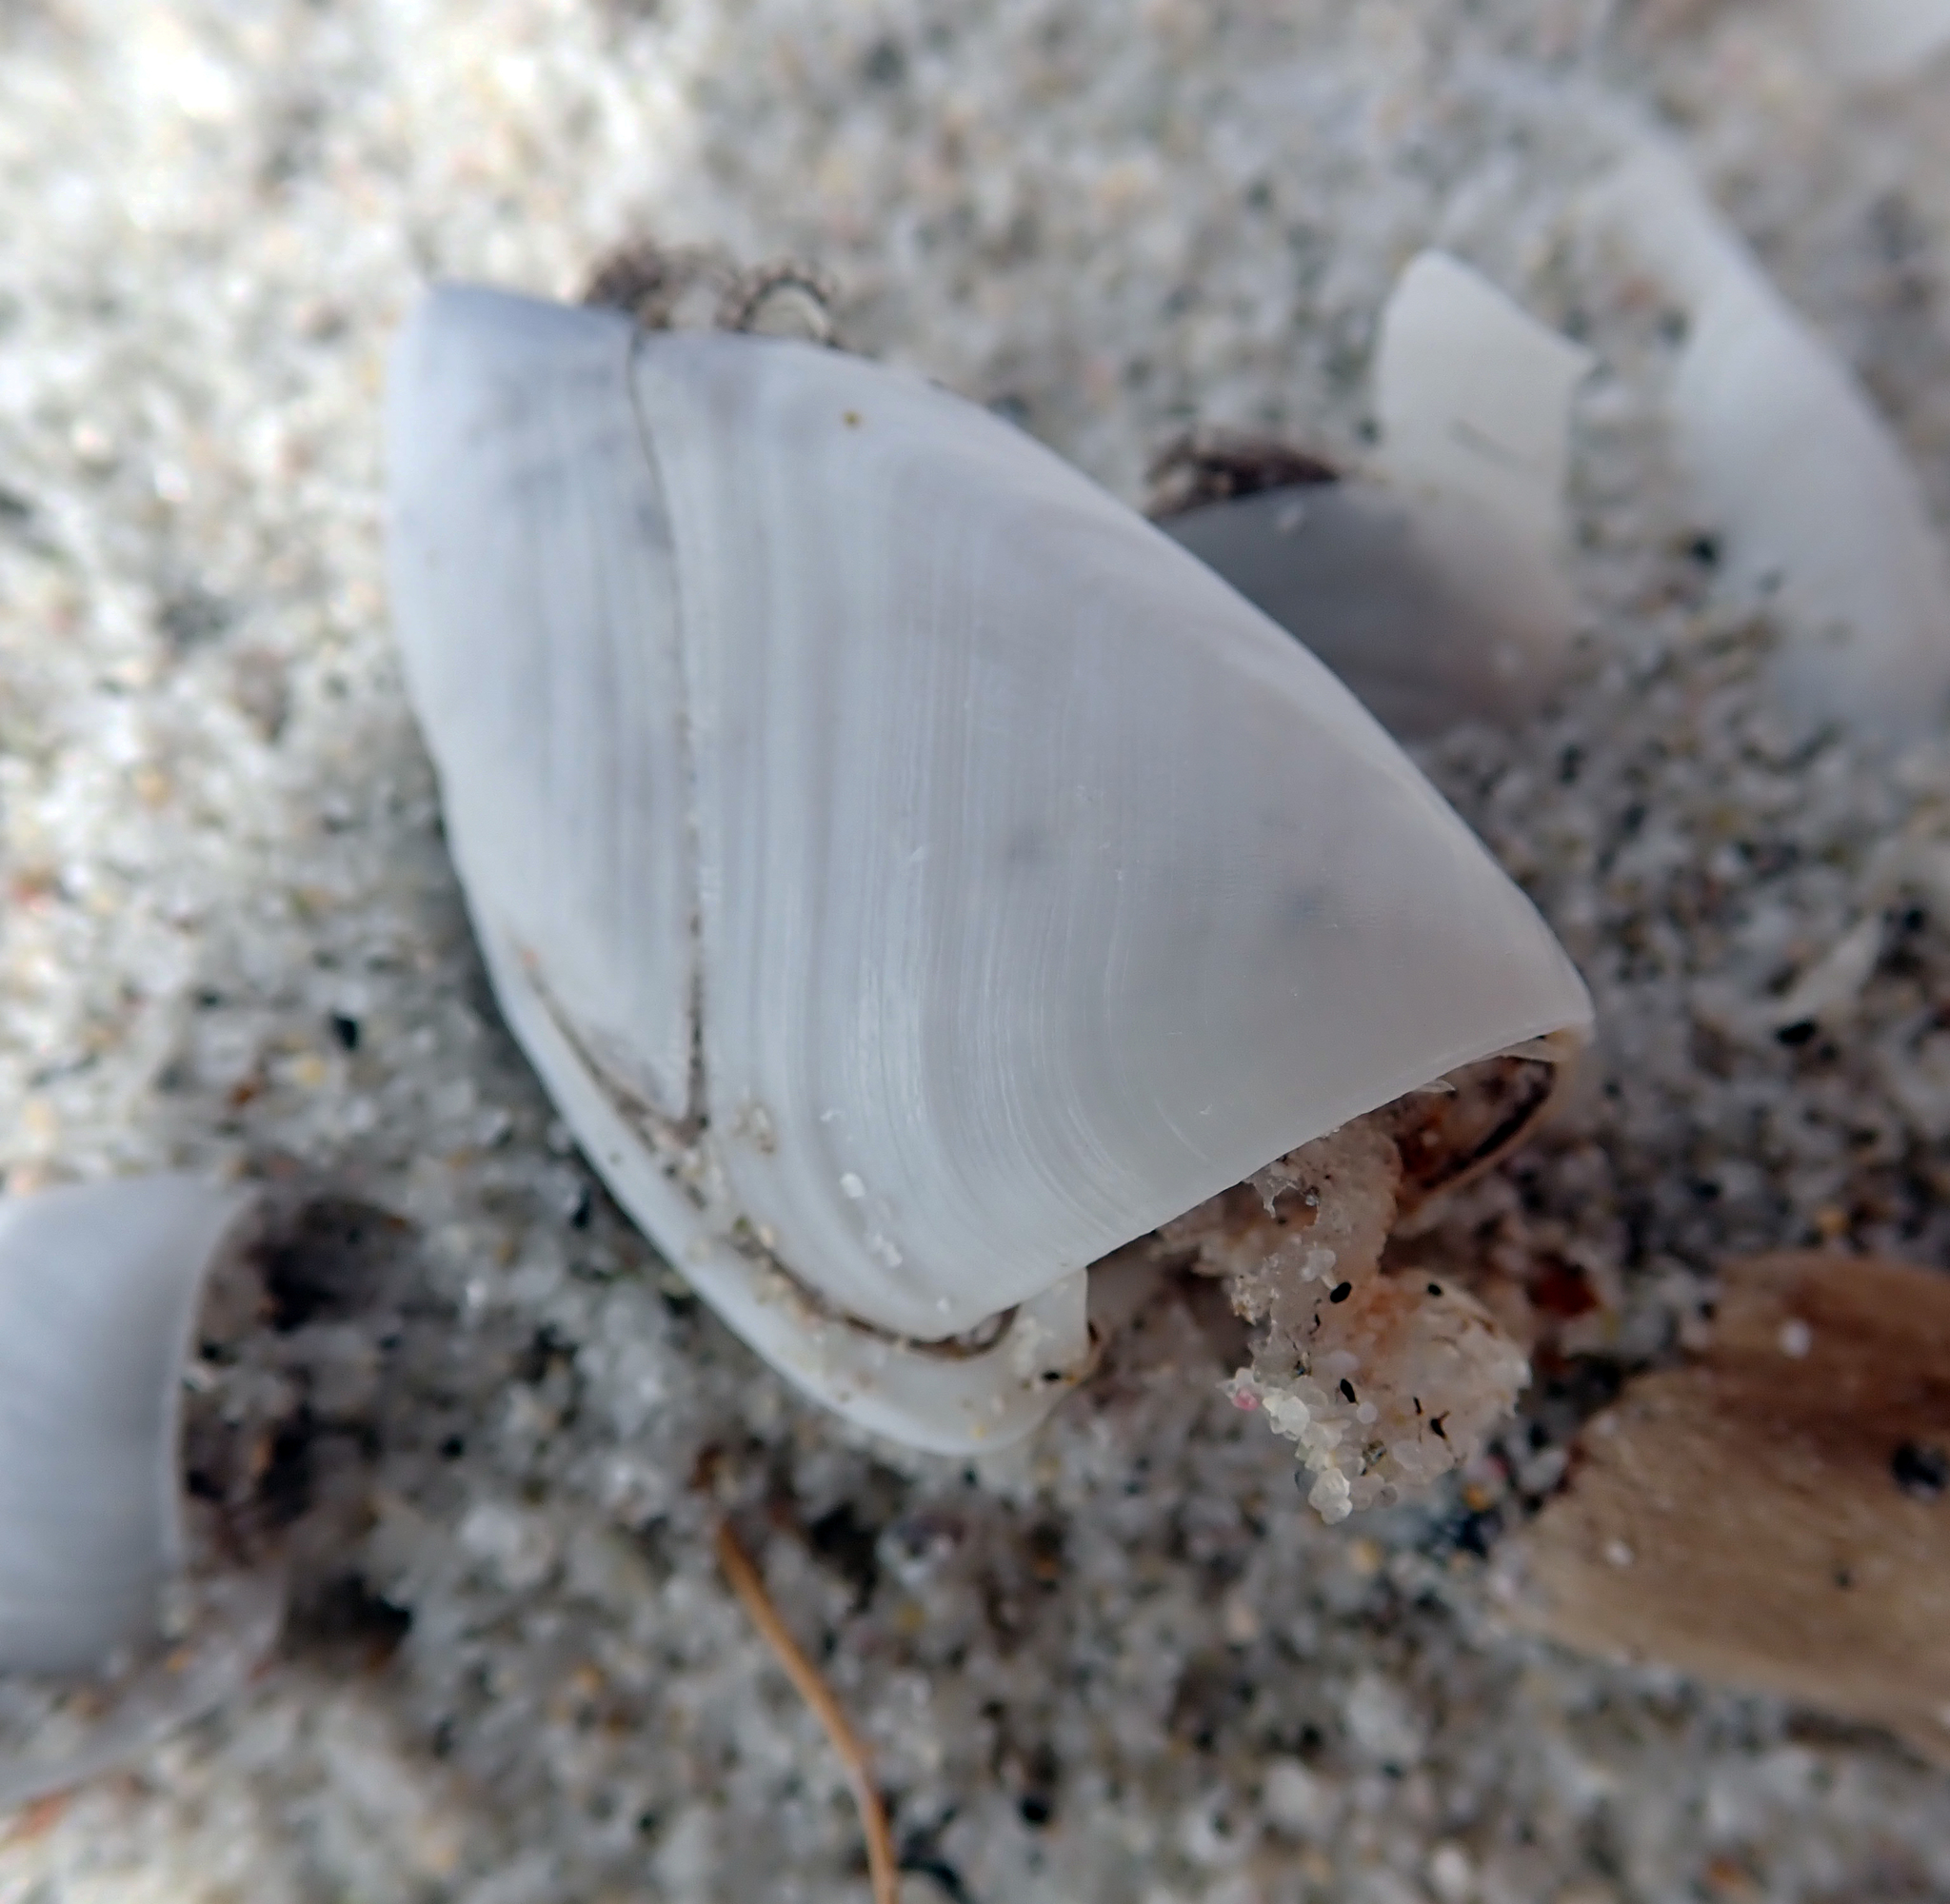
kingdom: Animalia
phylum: Arthropoda
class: Maxillopoda
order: Pedunculata
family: Lepadidae
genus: Lepas
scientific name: Lepas anatifera
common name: Common goose barnacle
